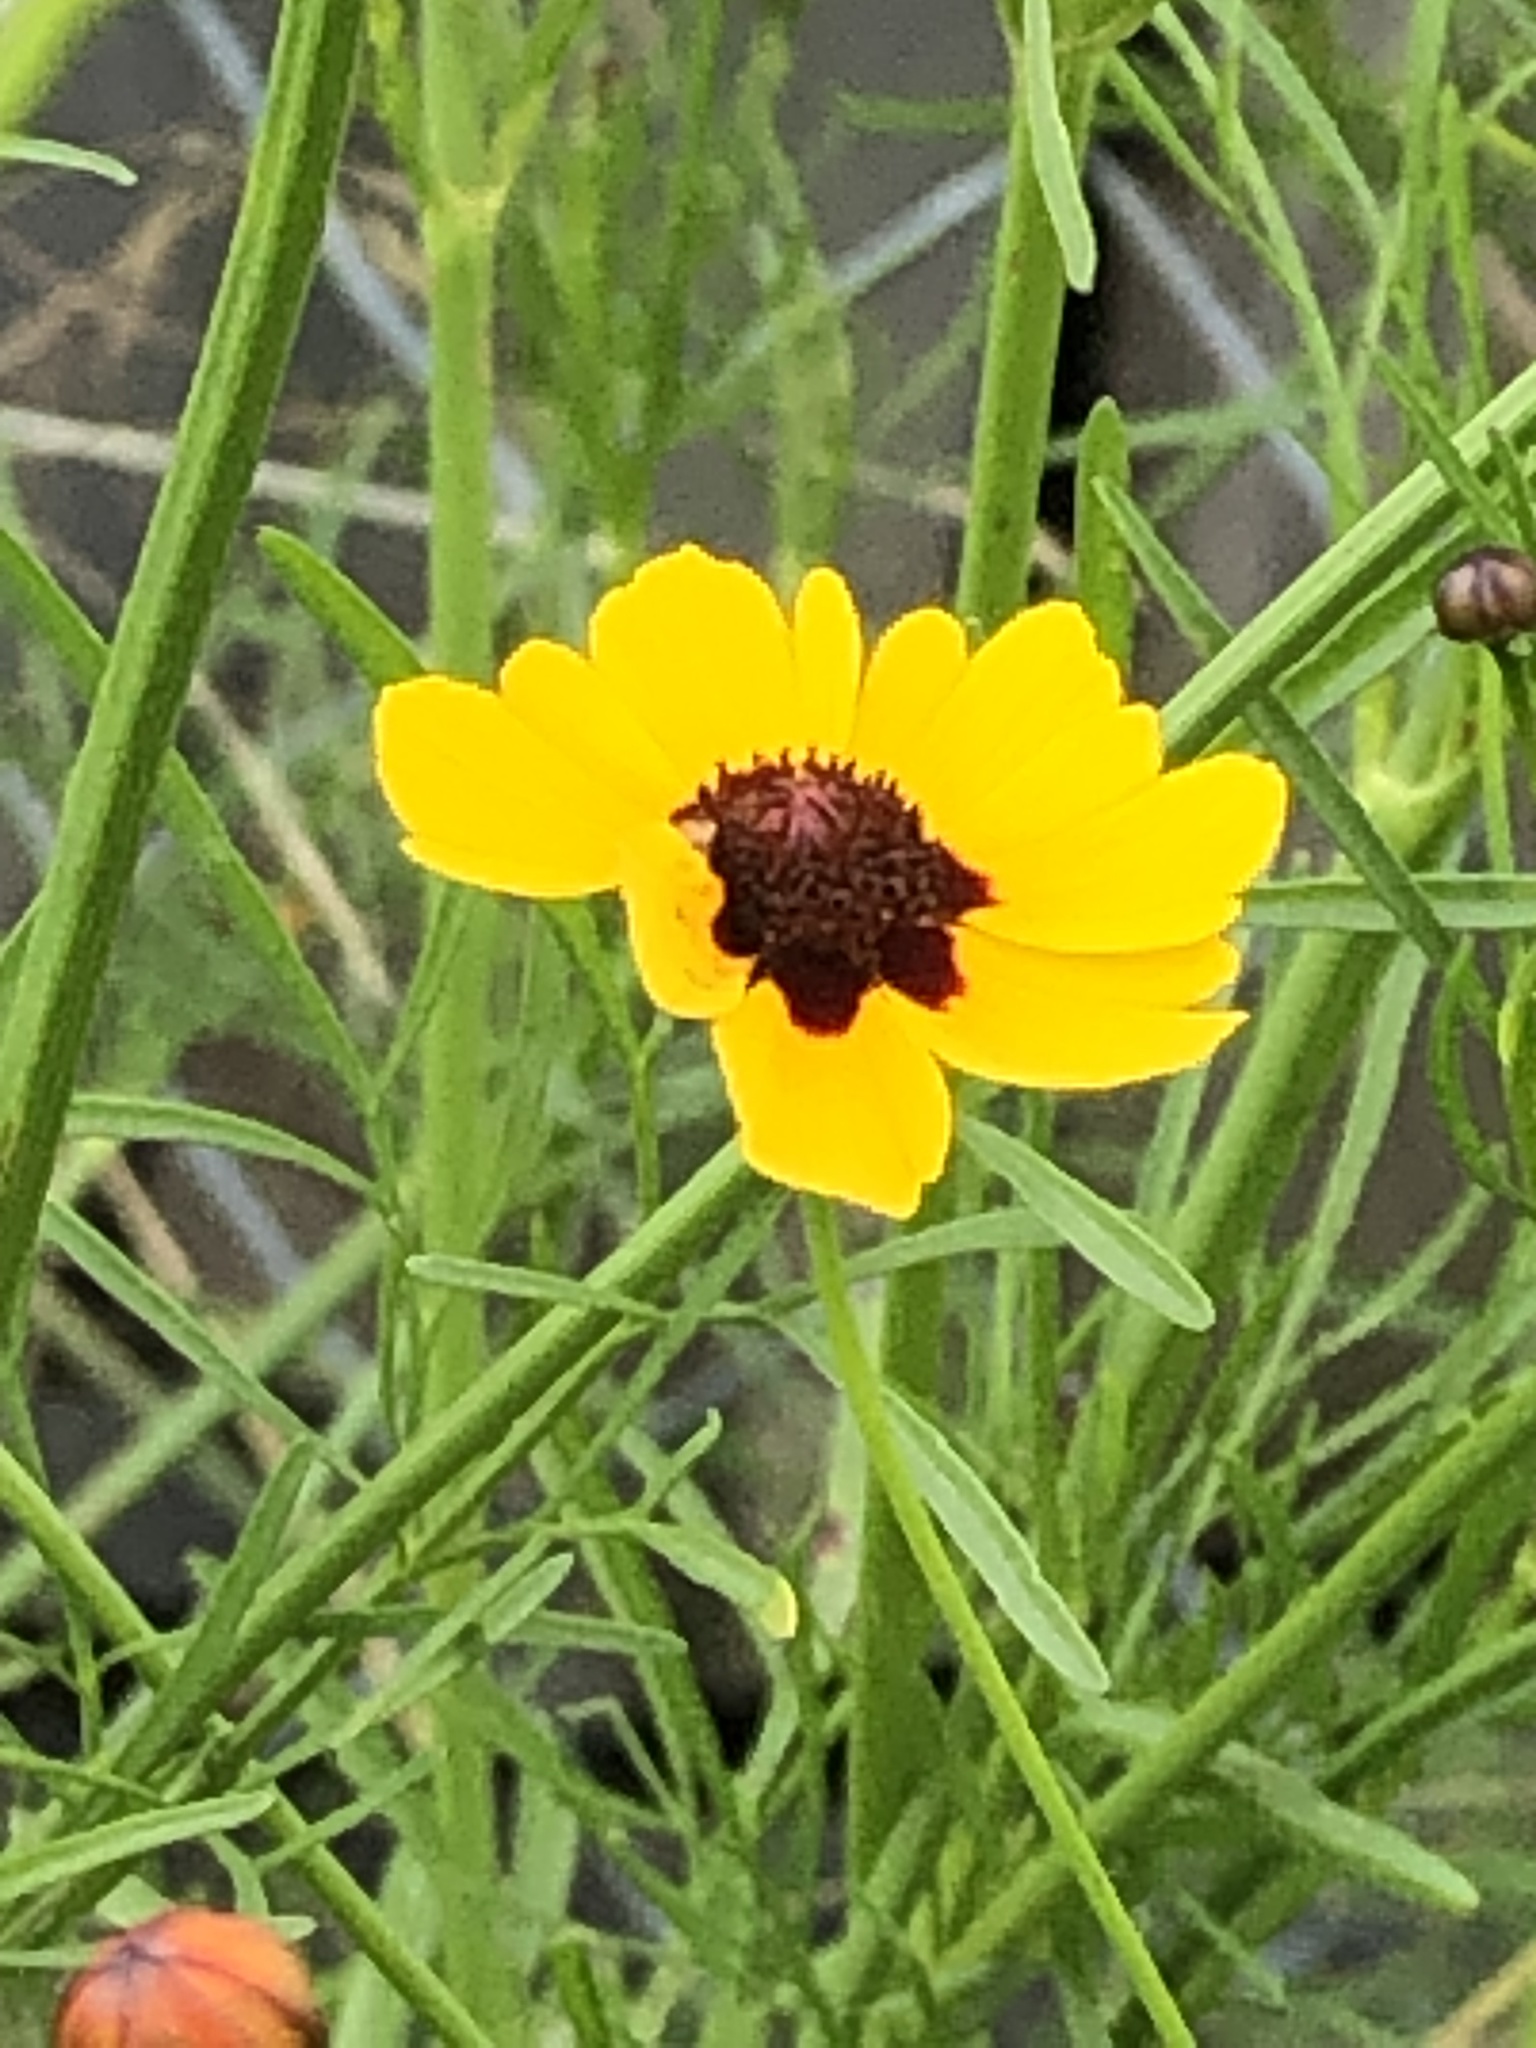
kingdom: Plantae
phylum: Tracheophyta
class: Magnoliopsida
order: Asterales
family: Asteraceae
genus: Coreopsis
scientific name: Coreopsis tinctoria
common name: Garden tickseed
